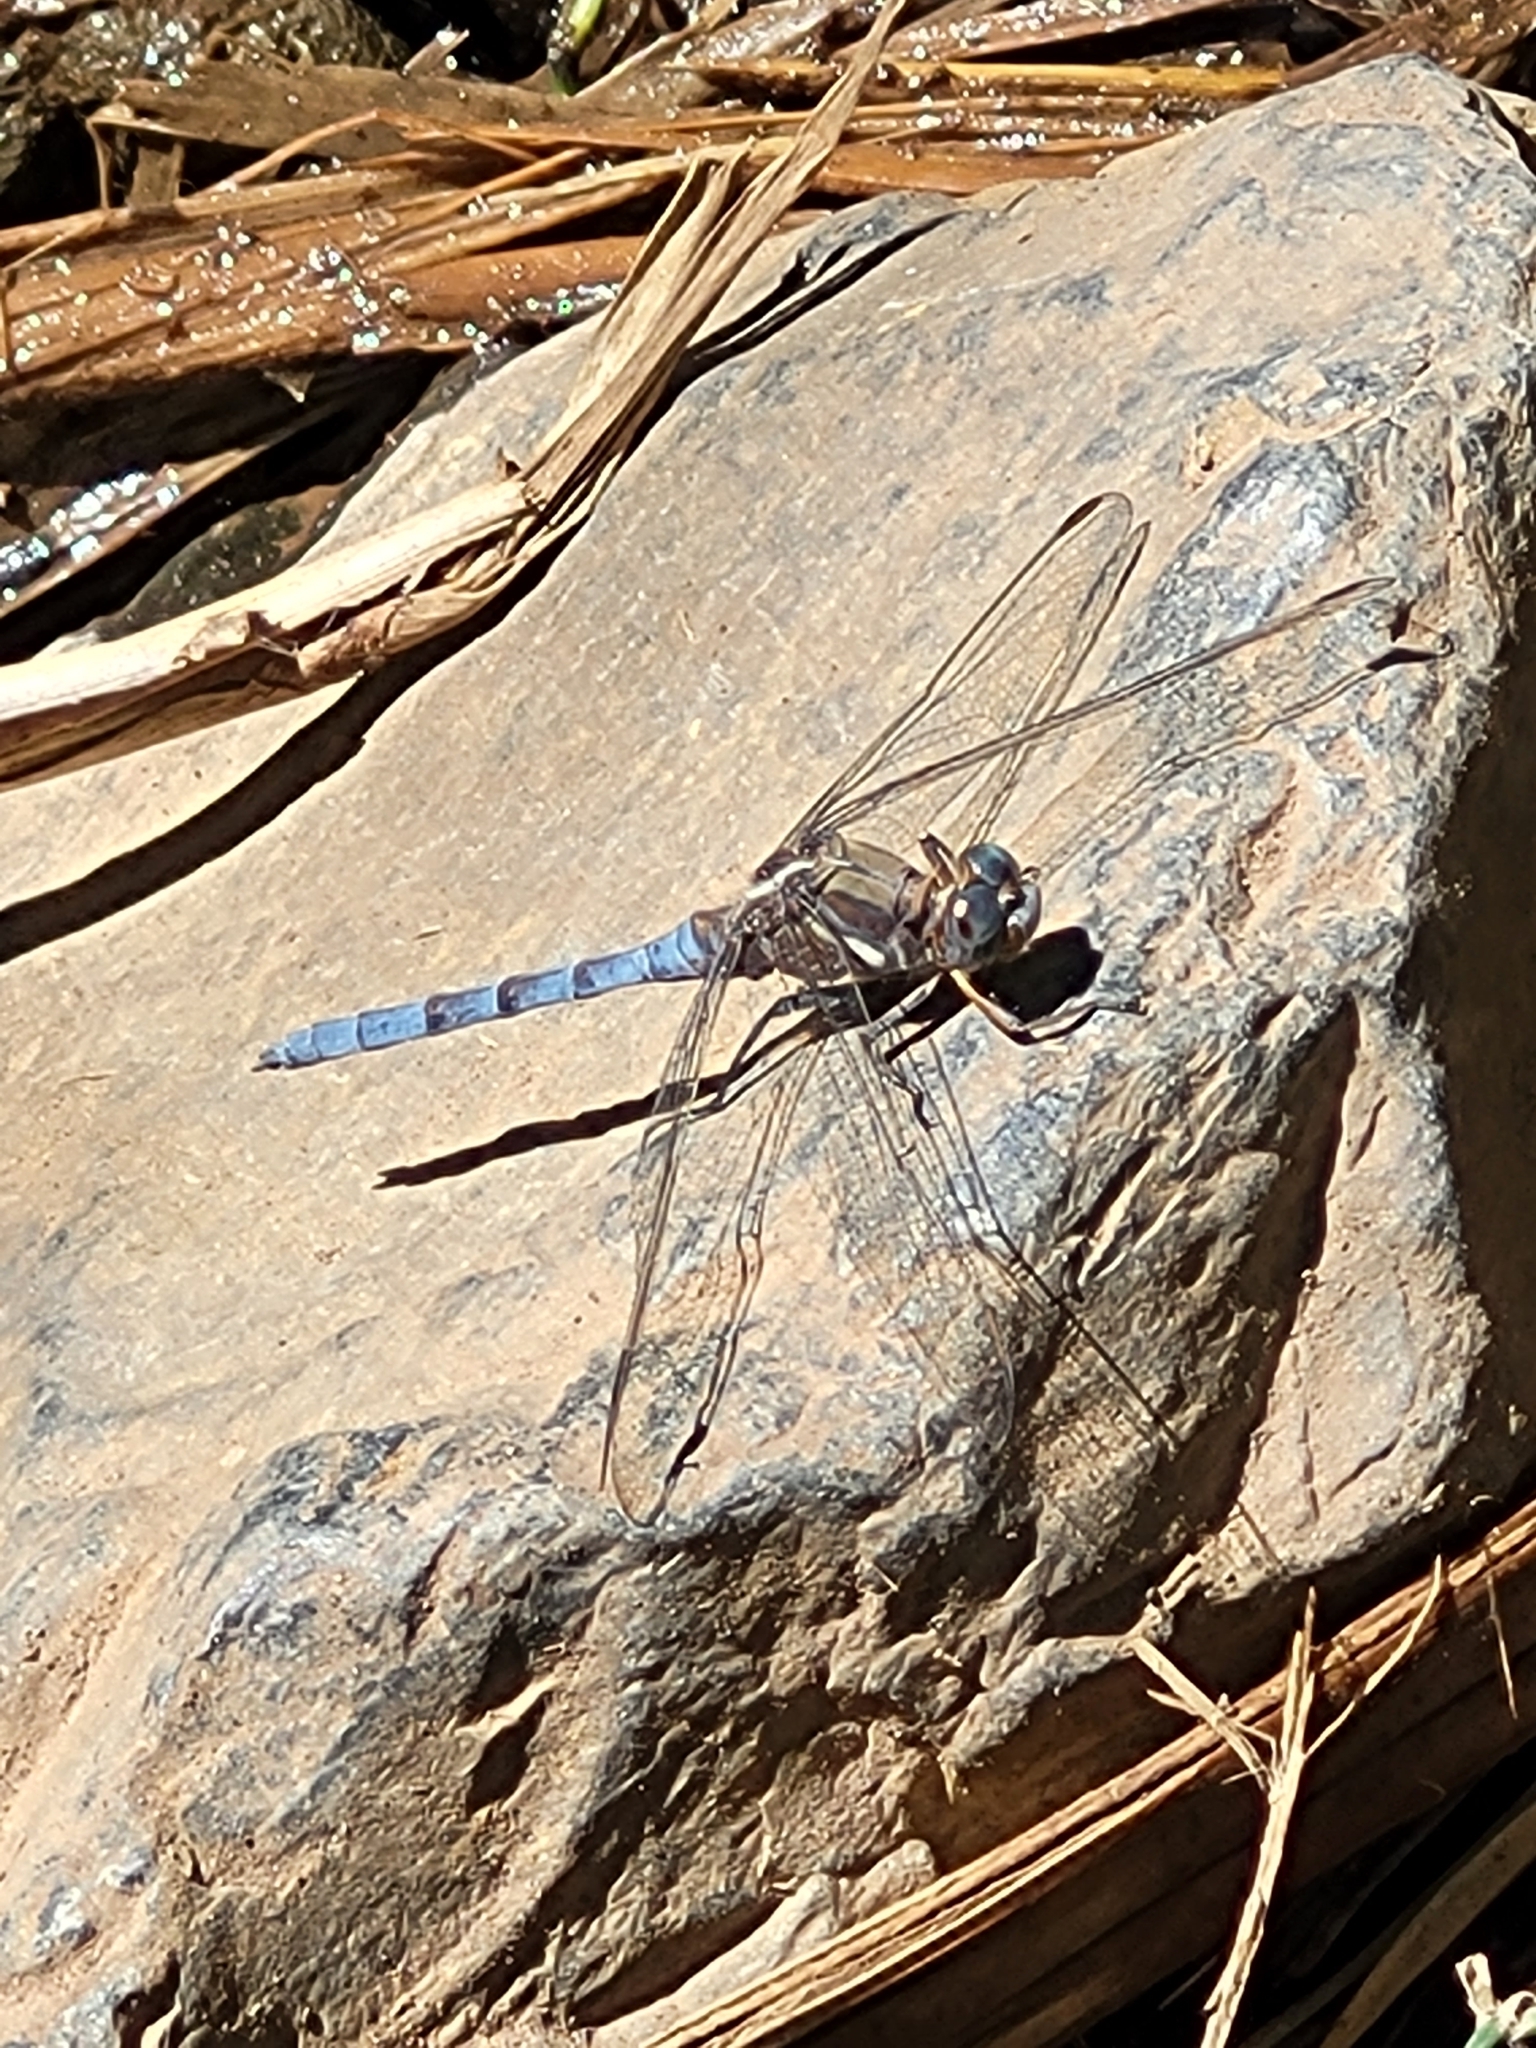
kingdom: Animalia
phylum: Arthropoda
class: Insecta
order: Odonata
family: Libellulidae
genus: Orthetrum
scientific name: Orthetrum chrysostigma
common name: Epaulet skimmer
